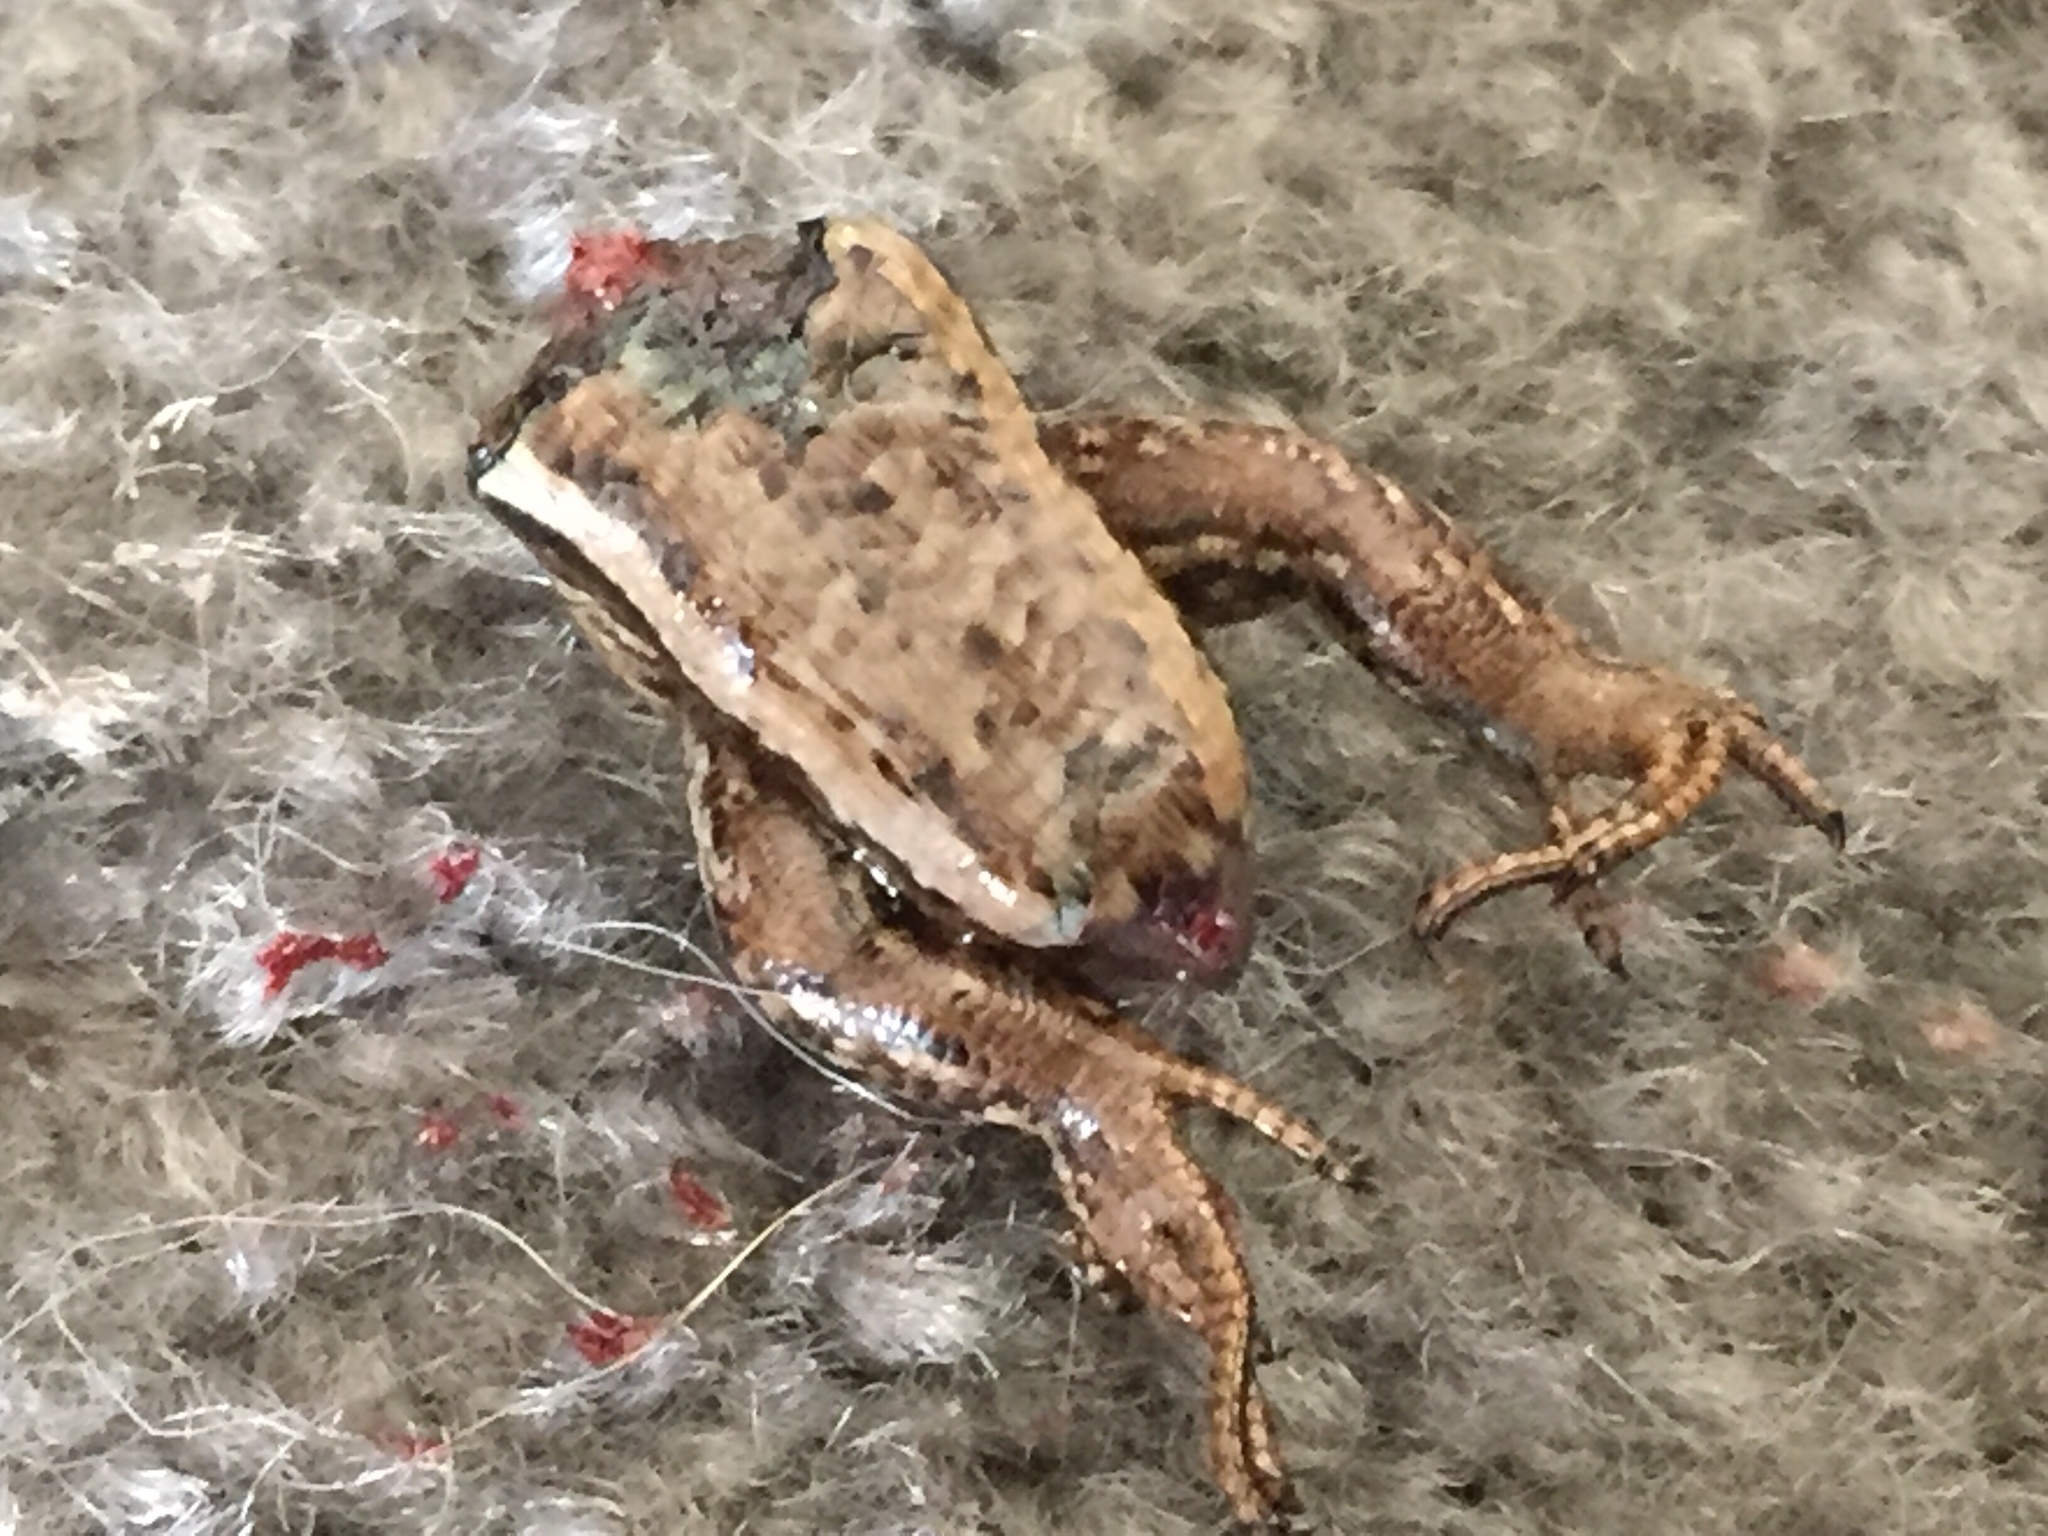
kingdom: Animalia
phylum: Chordata
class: Squamata
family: Scincidae
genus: Oligosoma
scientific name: Oligosoma polychroma
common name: Common new zealand skink
